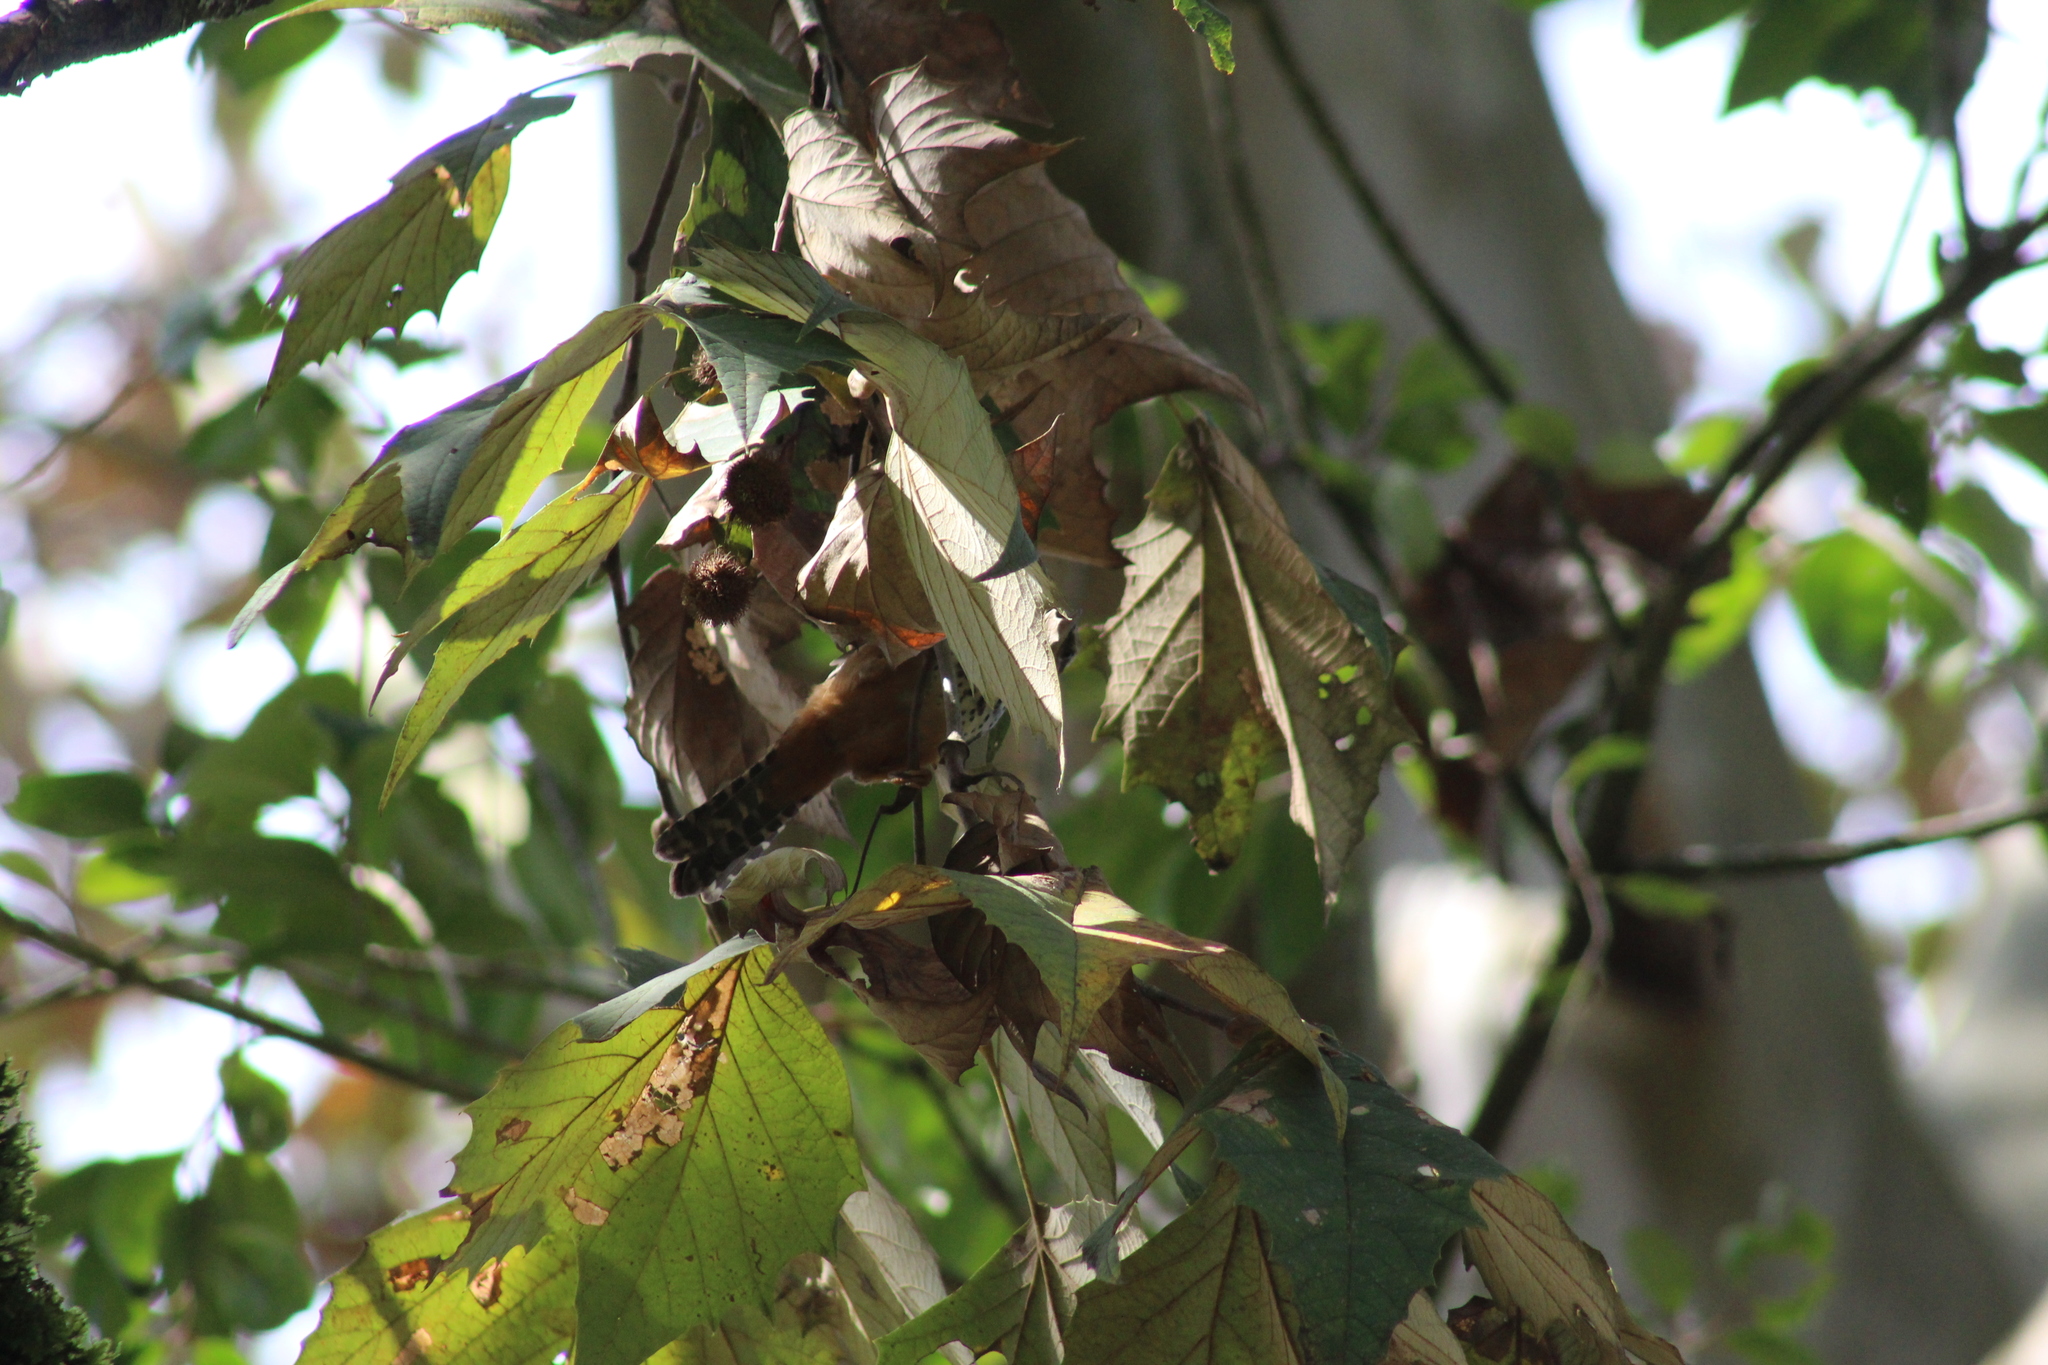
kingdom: Animalia
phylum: Chordata
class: Aves
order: Passeriformes
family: Troglodytidae
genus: Campylorhynchus
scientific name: Campylorhynchus zonatus
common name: Band-backed wren
